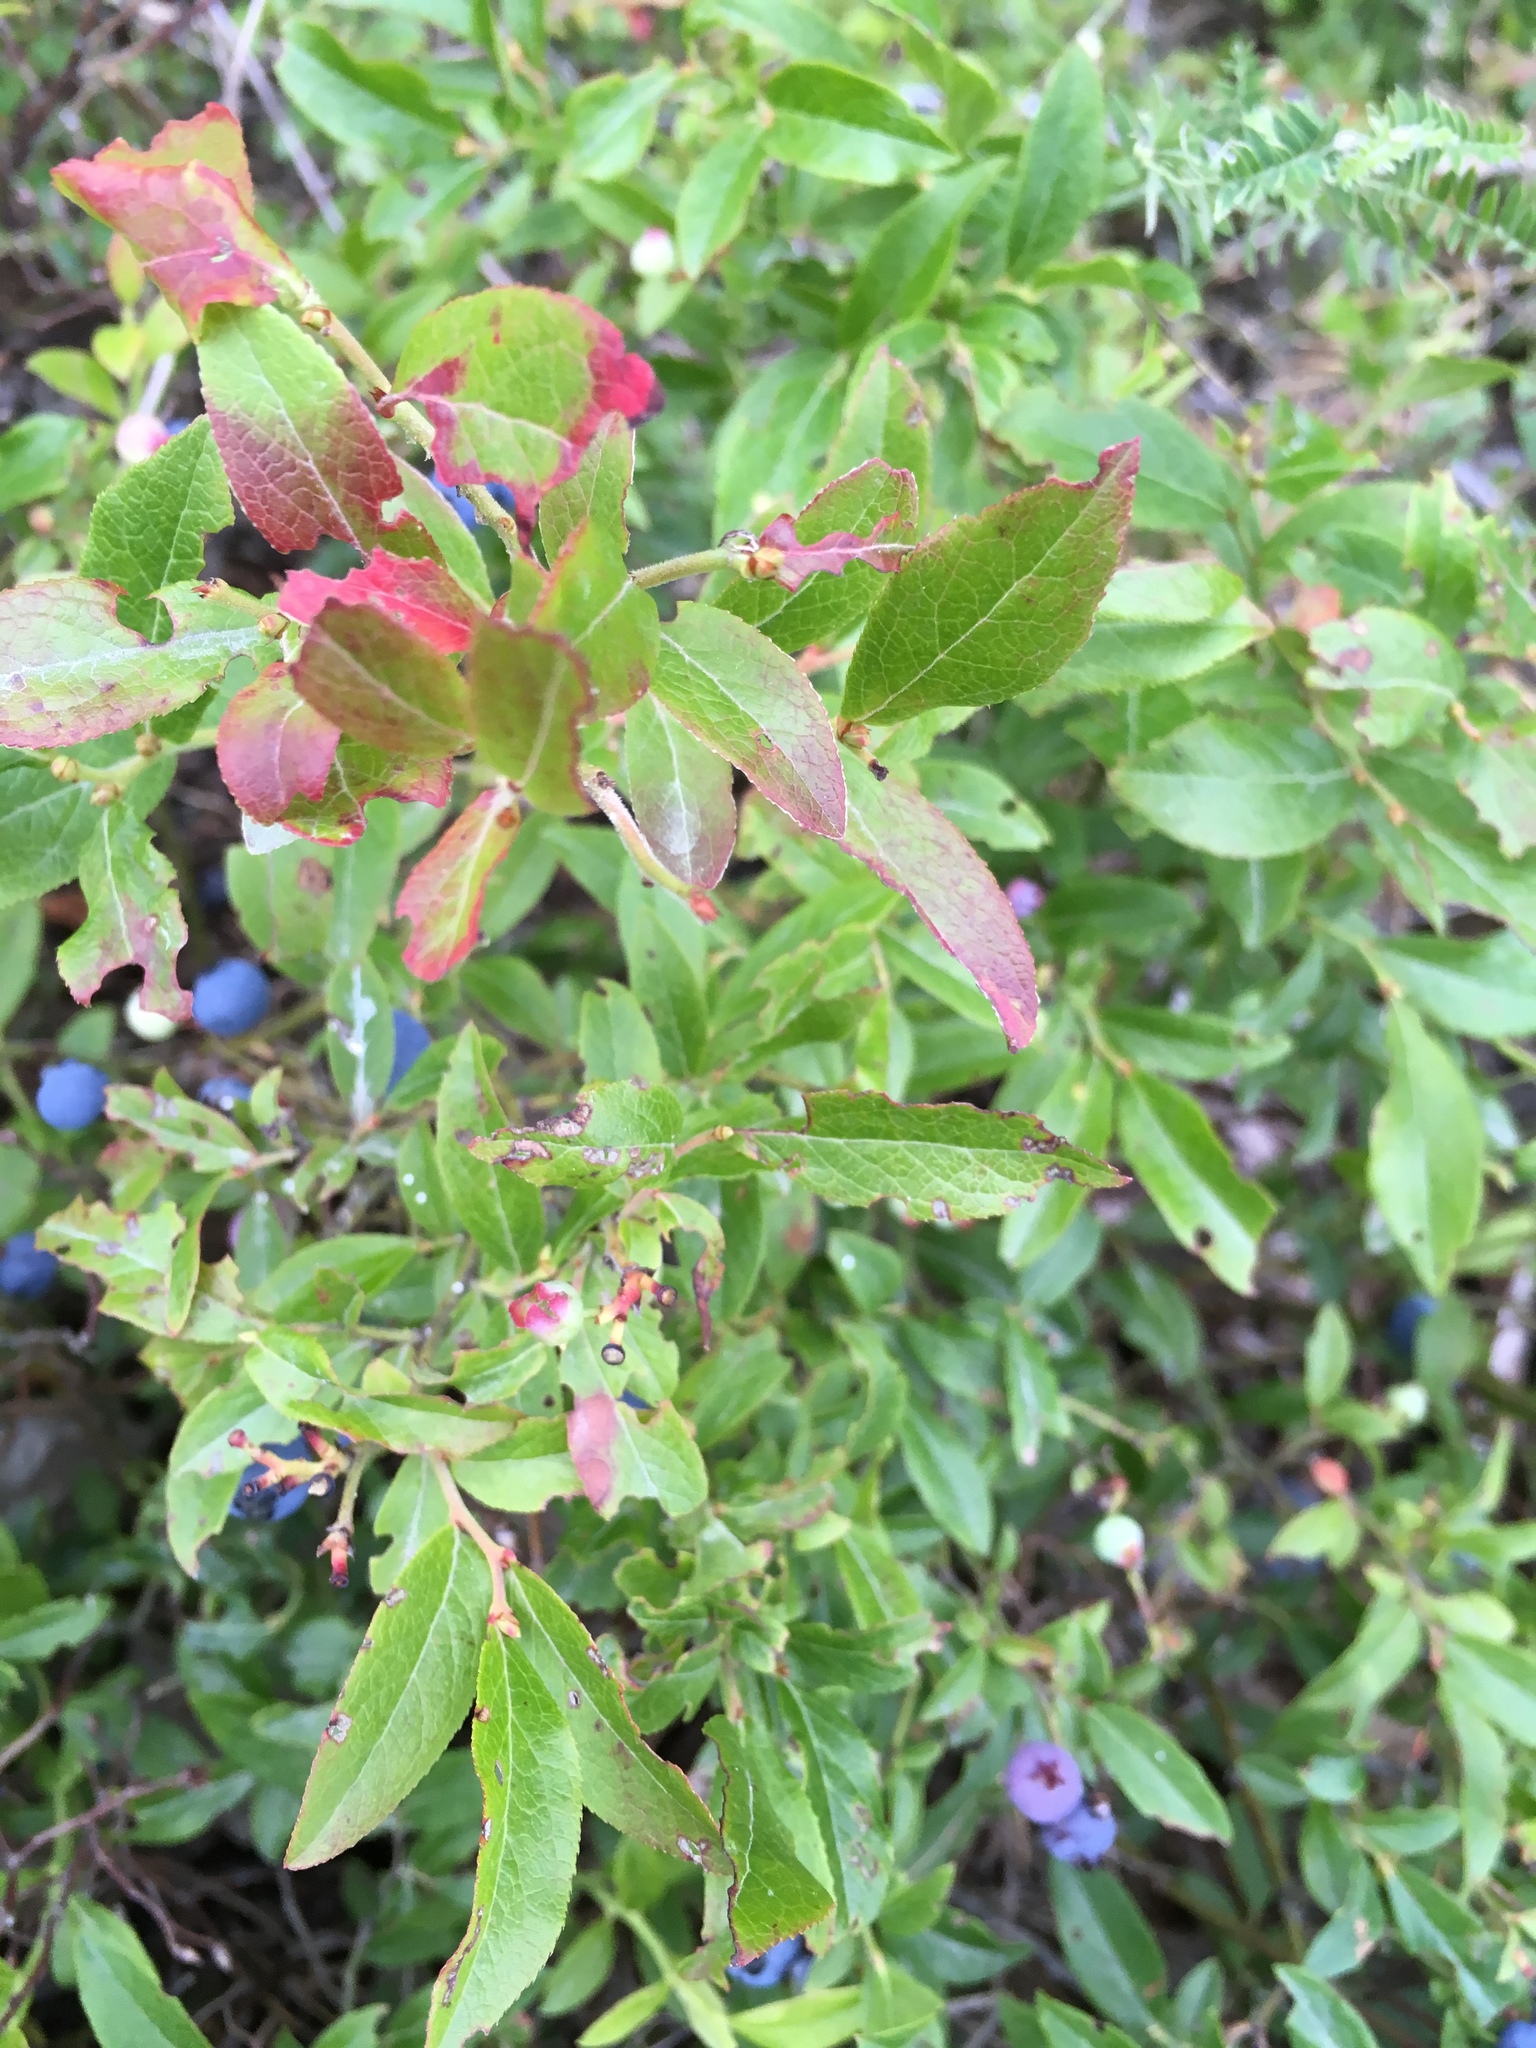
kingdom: Plantae
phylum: Tracheophyta
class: Magnoliopsida
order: Ericales
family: Ericaceae
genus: Vaccinium
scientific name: Vaccinium angustifolium
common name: Early lowbush blueberry
